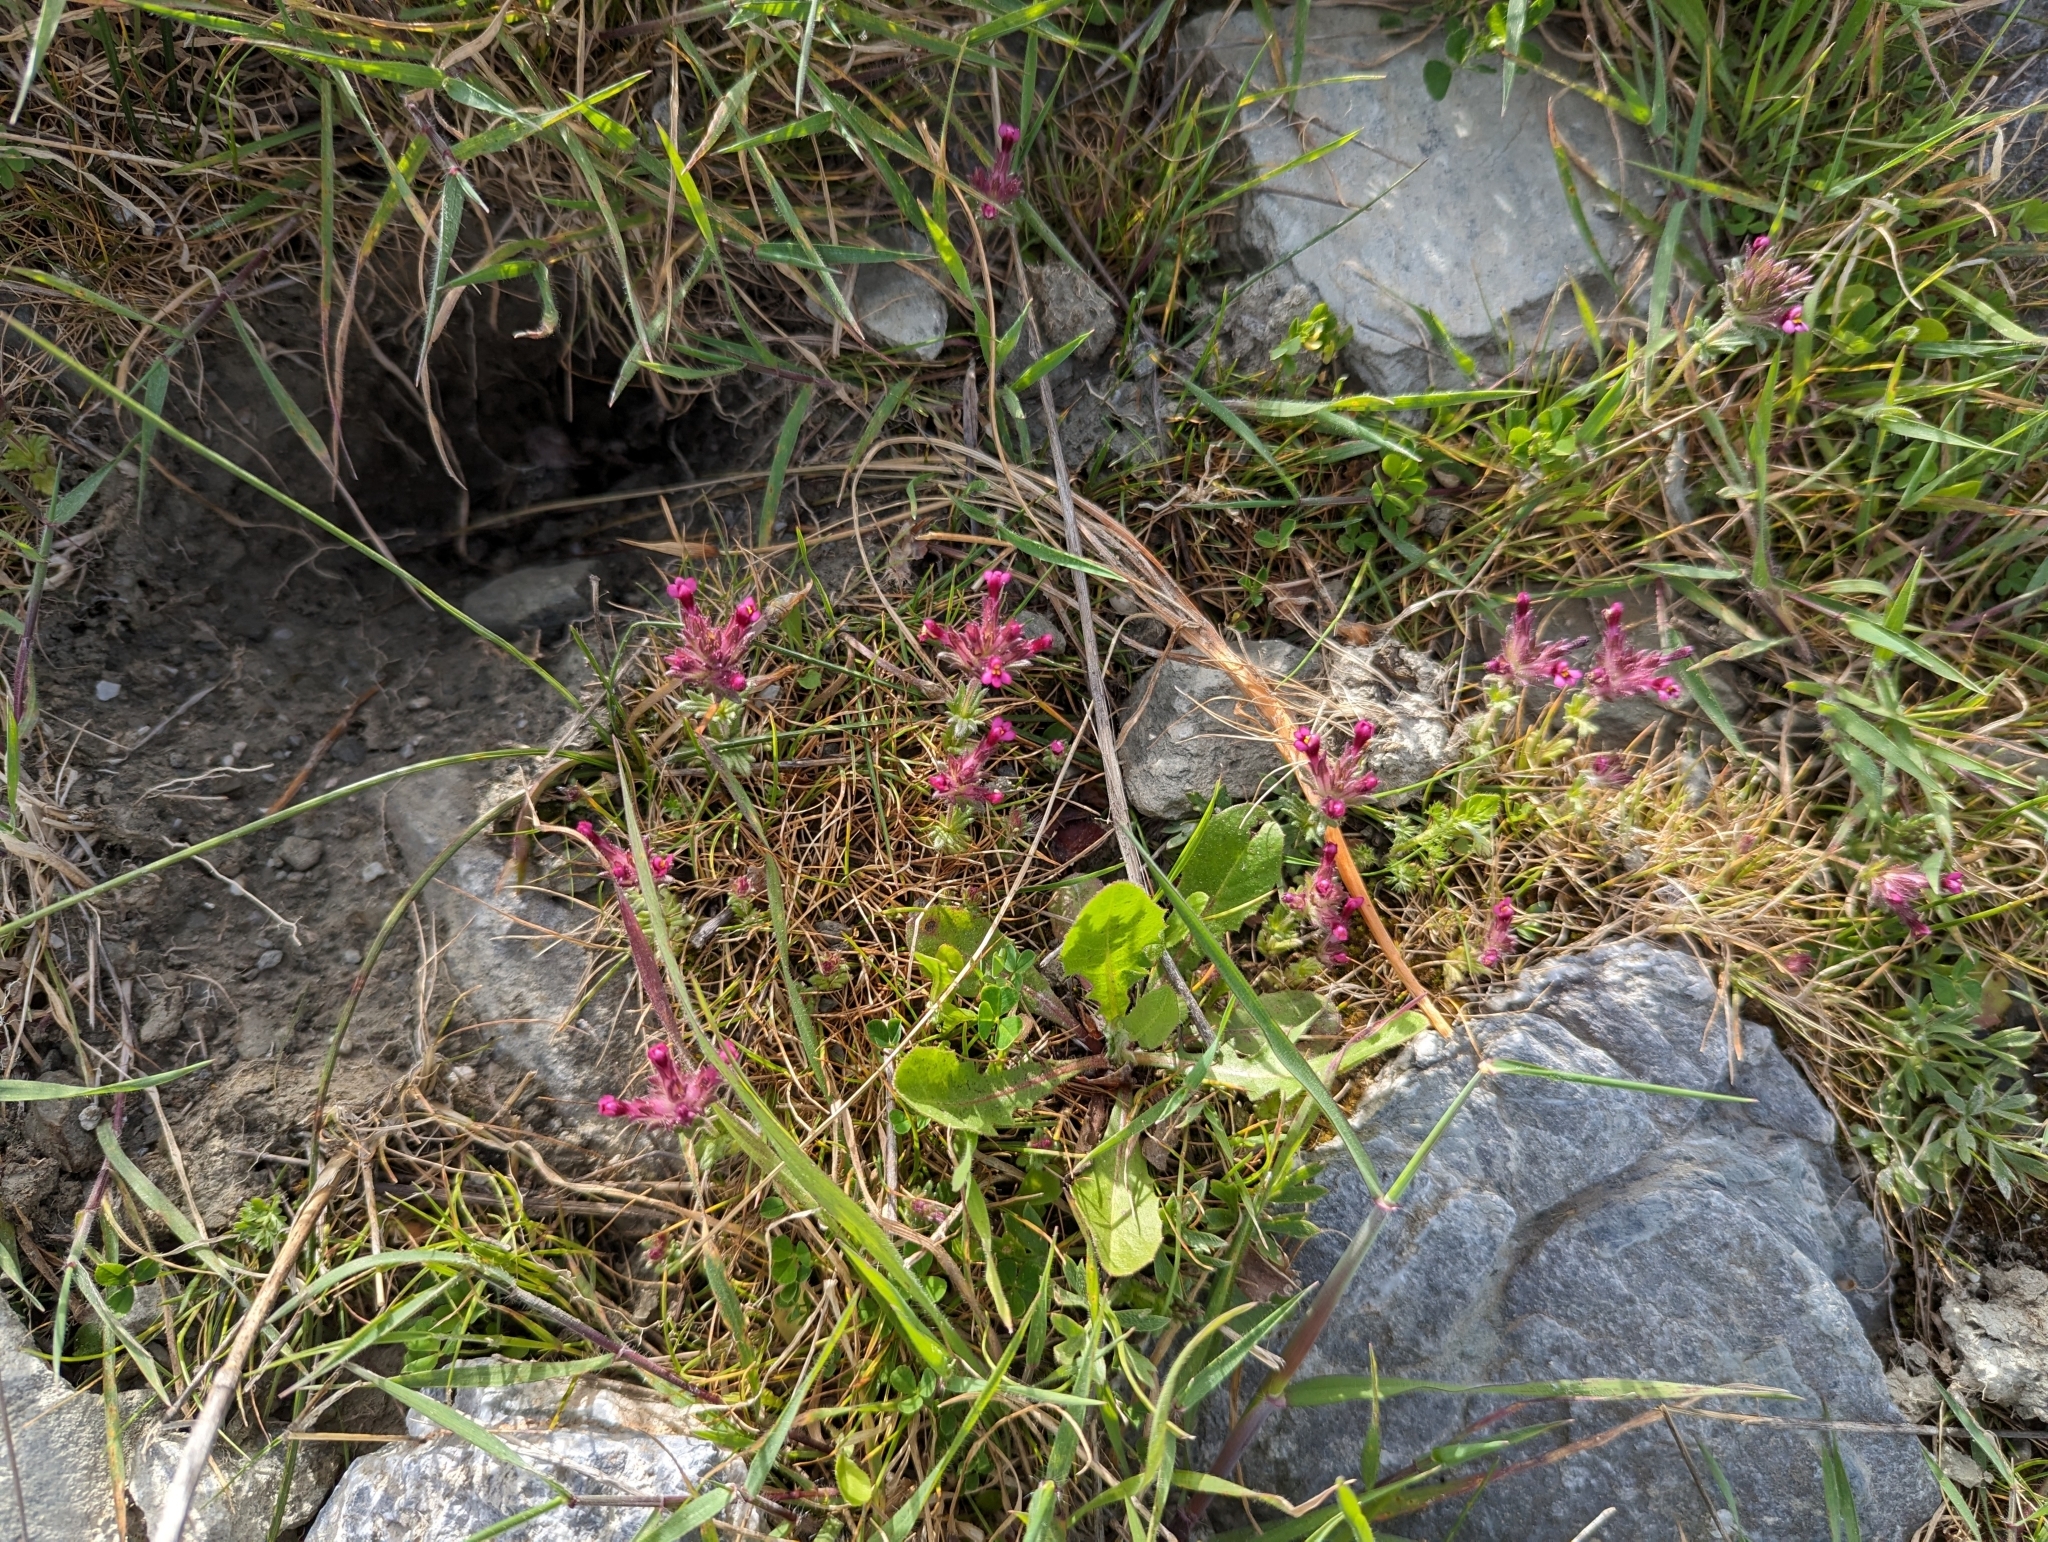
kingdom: Plantae
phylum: Tracheophyta
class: Magnoliopsida
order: Lamiales
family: Orobanchaceae
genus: Parentucellia
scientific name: Parentucellia latifolia
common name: Broadleaf glandweed
